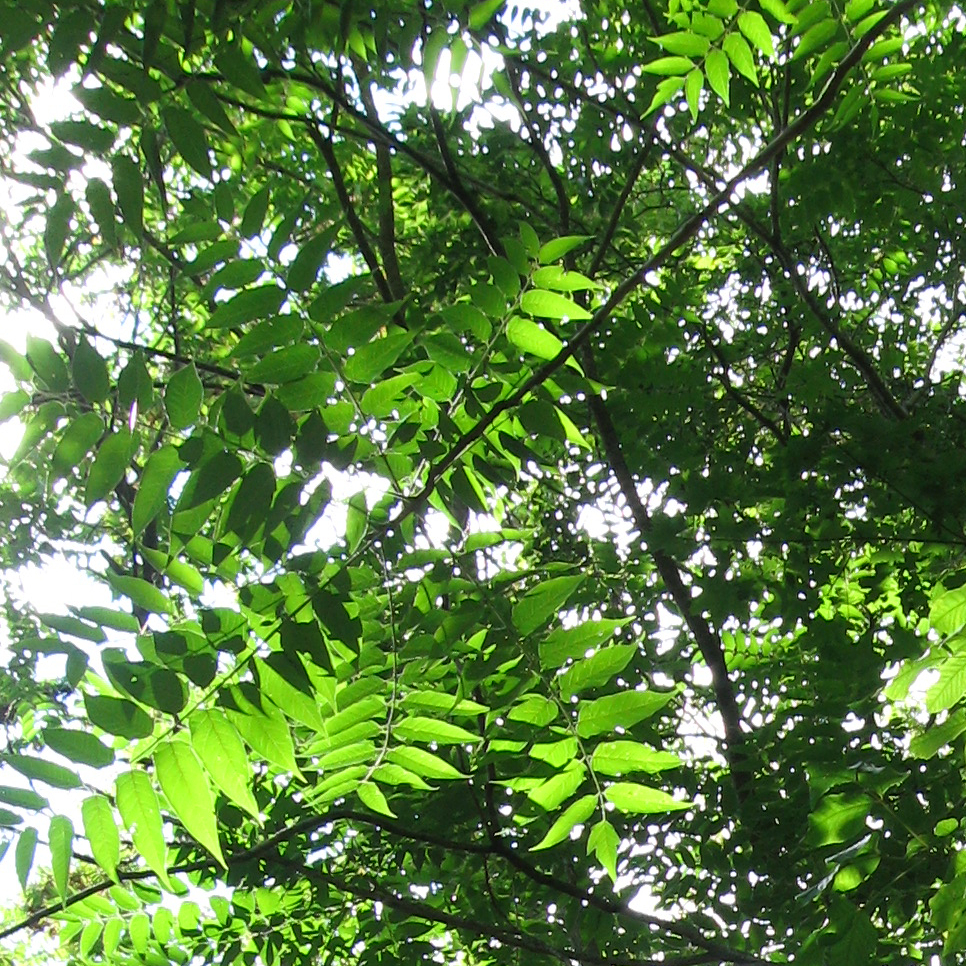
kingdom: Plantae
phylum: Tracheophyta
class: Magnoliopsida
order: Sapindales
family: Simaroubaceae
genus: Ailanthus
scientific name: Ailanthus altissima
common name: Tree-of-heaven
